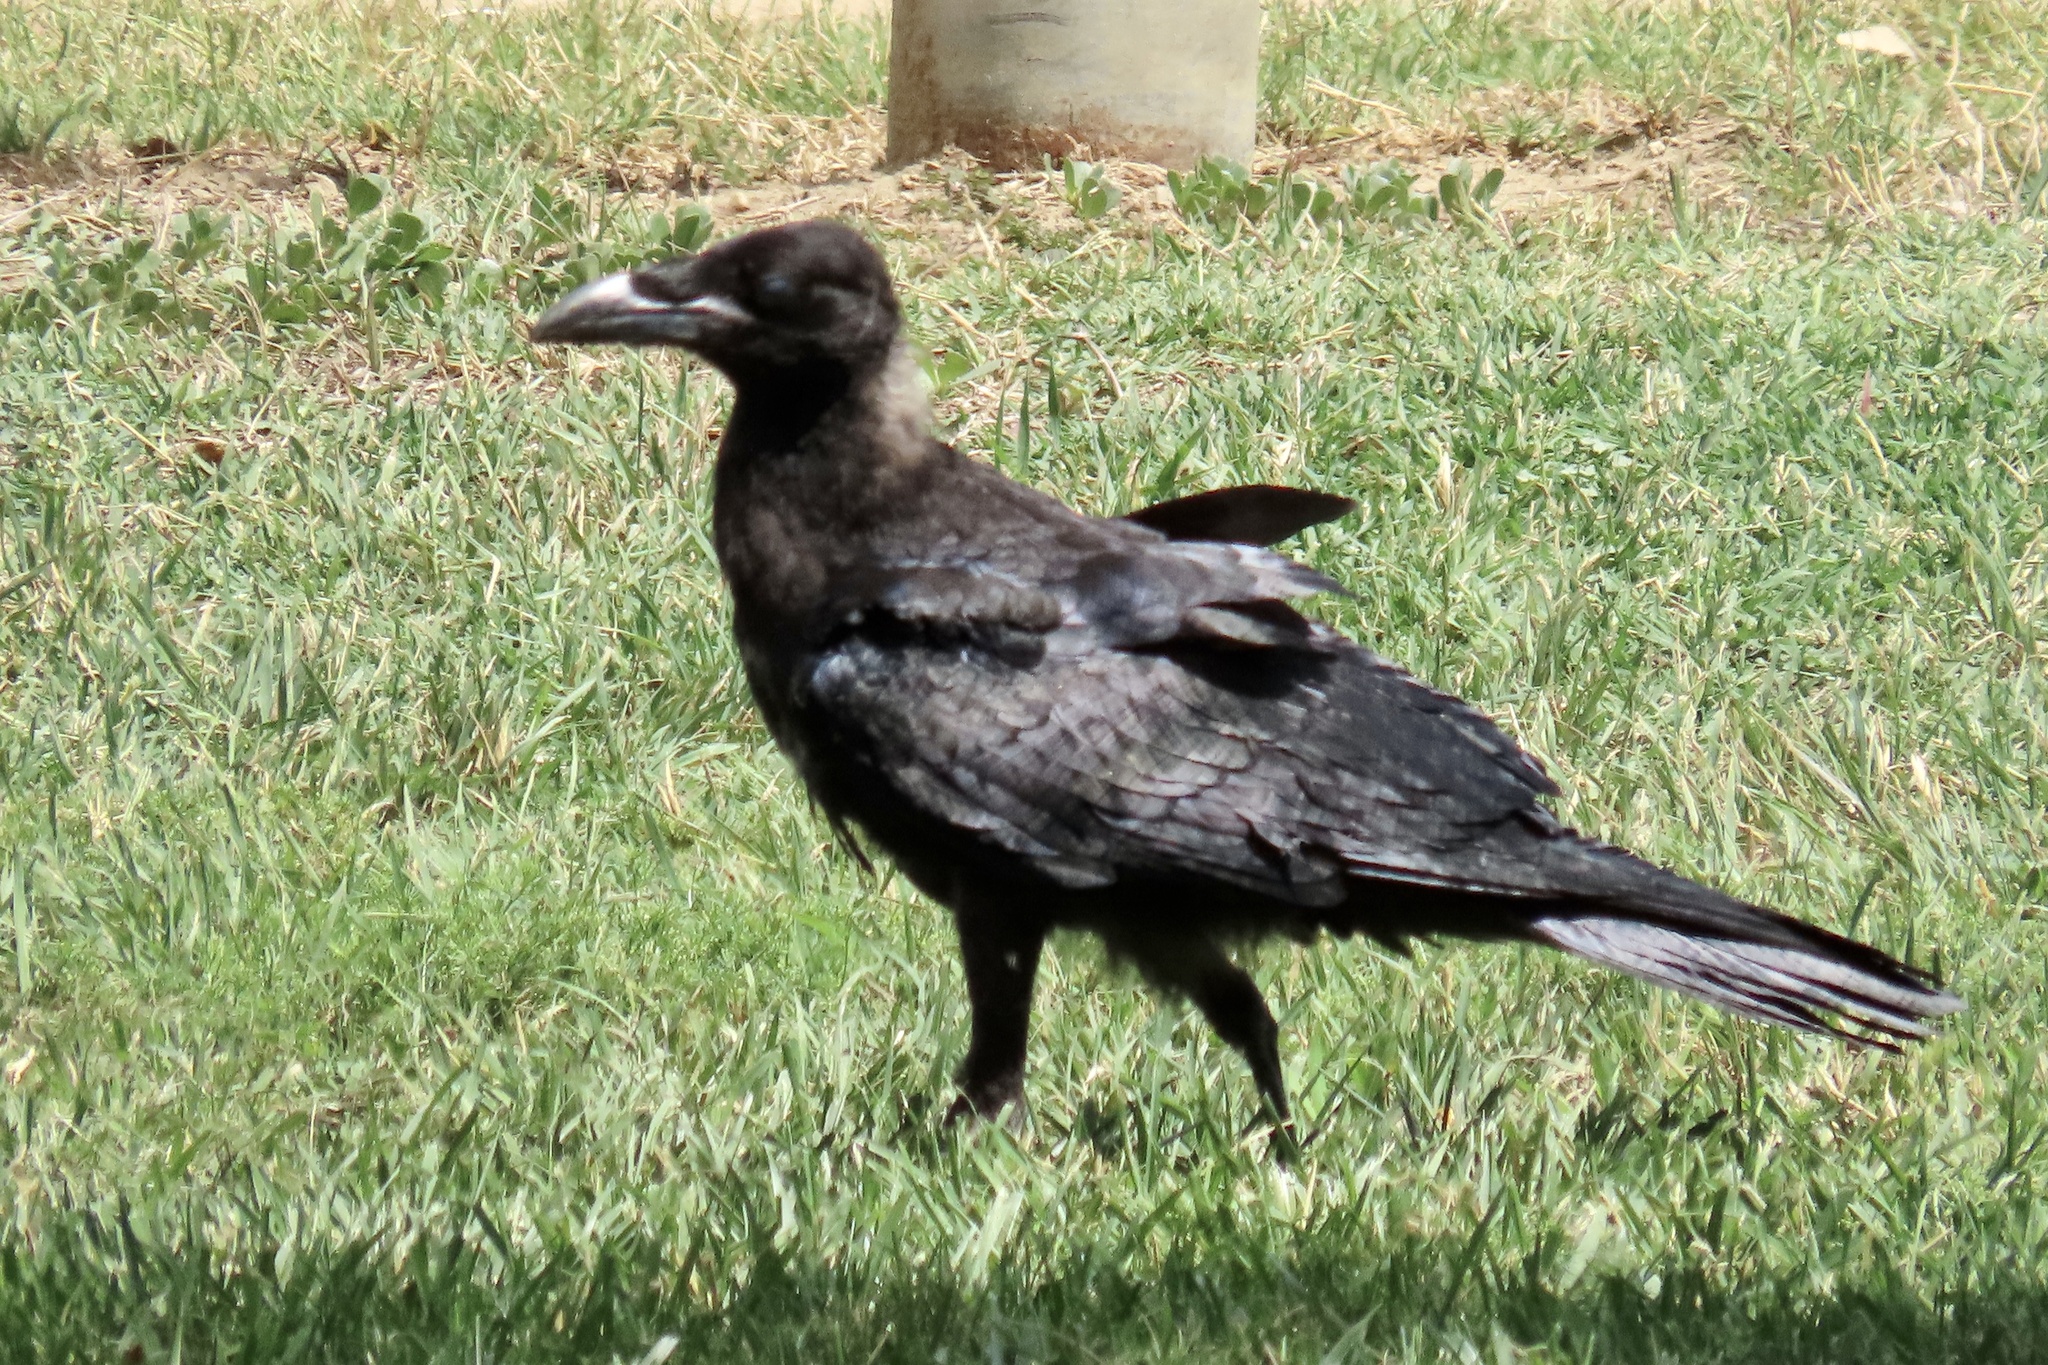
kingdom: Animalia
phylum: Chordata
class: Aves
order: Passeriformes
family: Corvidae
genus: Corvus
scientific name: Corvus corax
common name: Common raven
